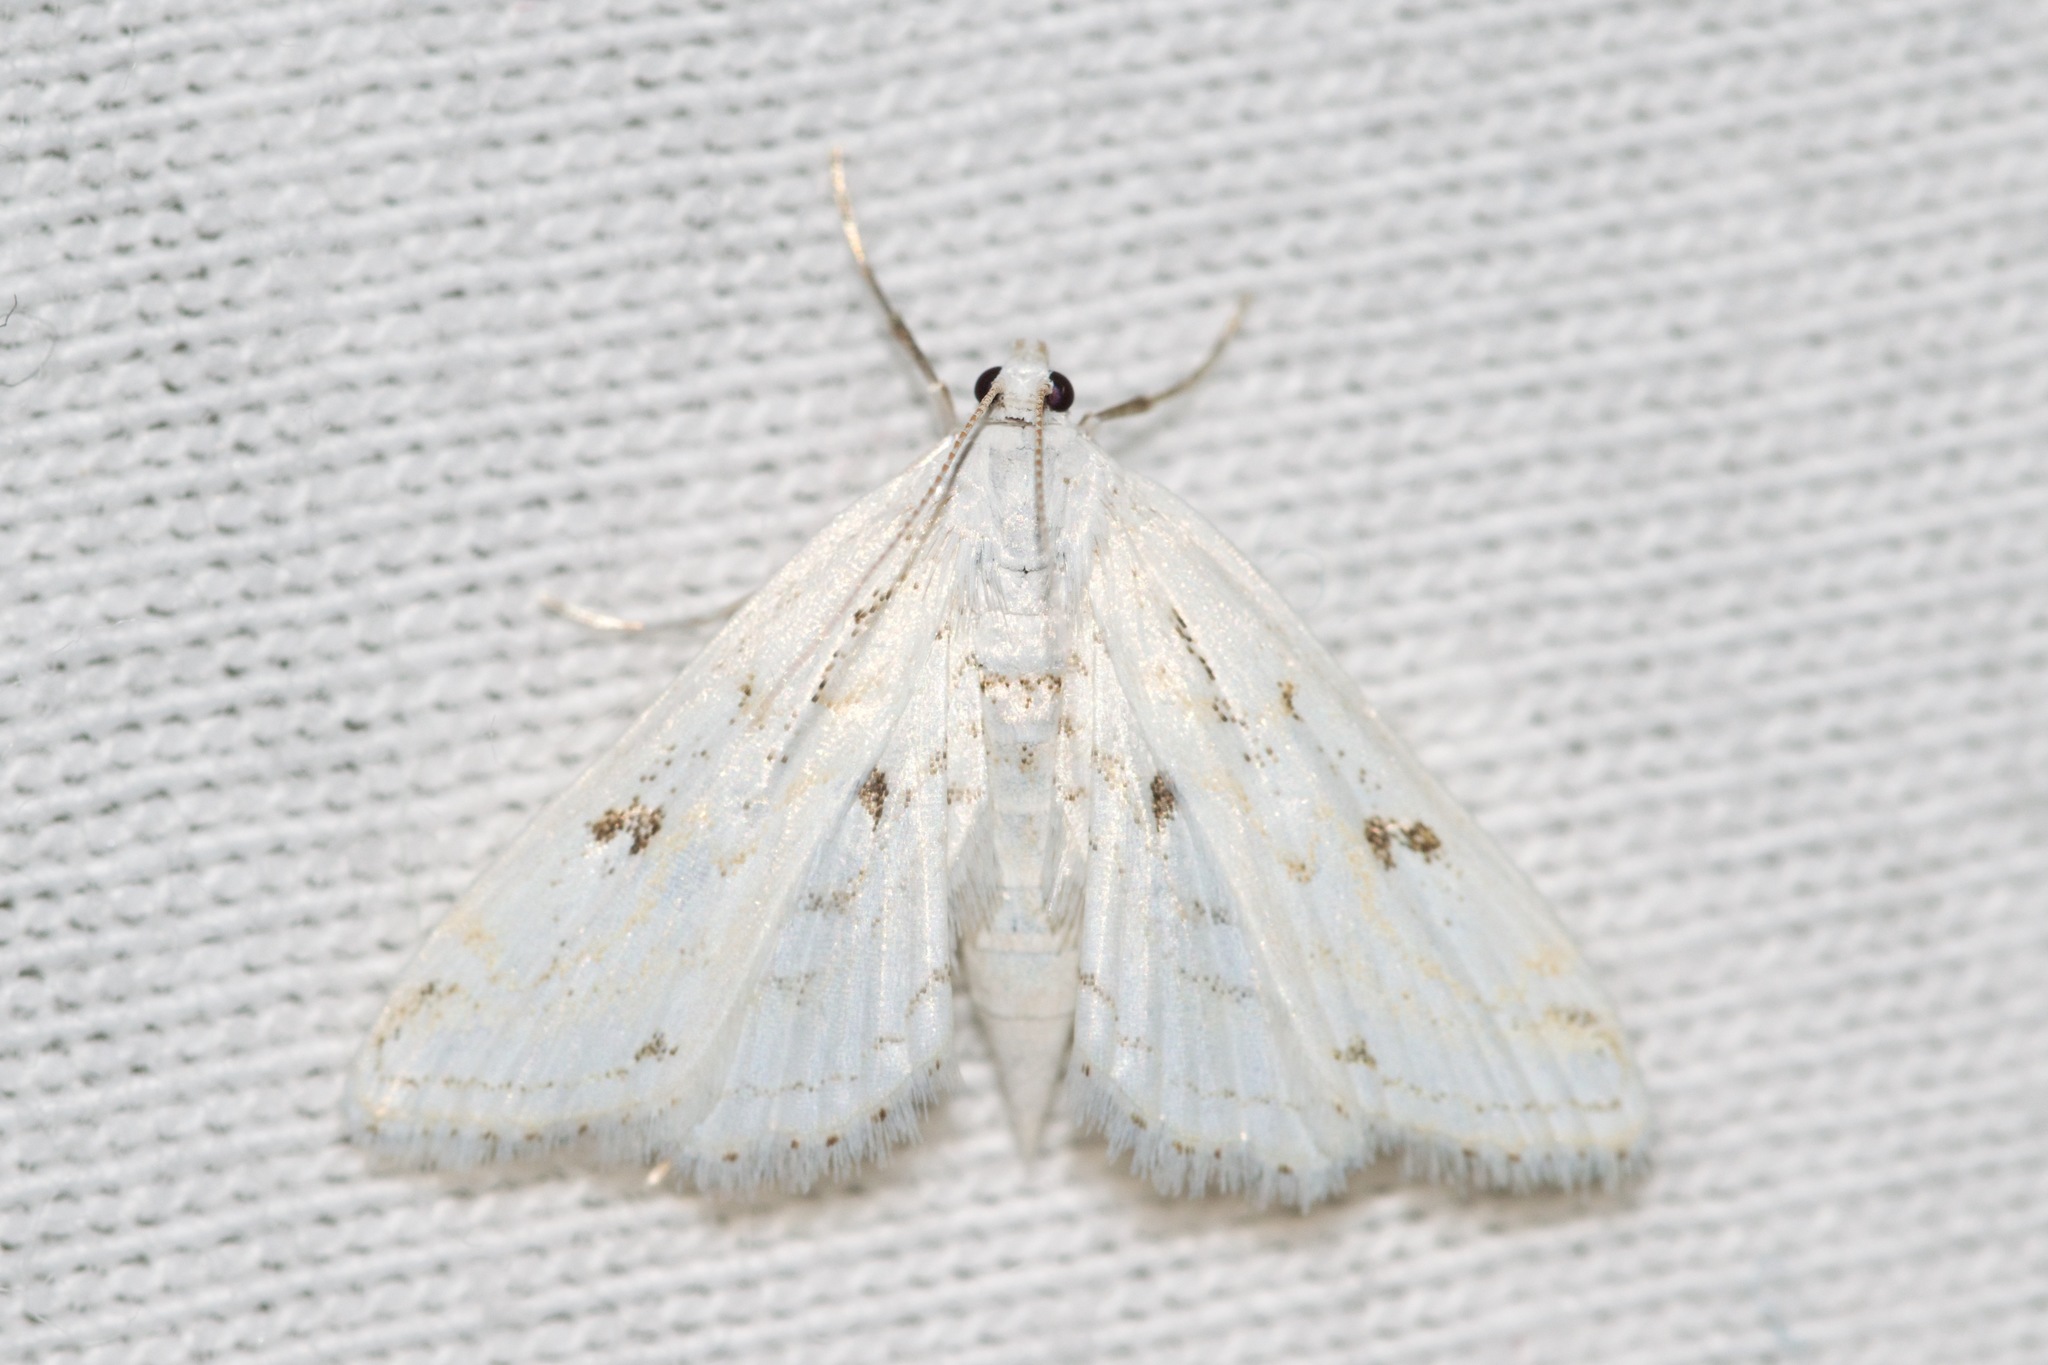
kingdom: Animalia
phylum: Arthropoda
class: Insecta
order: Lepidoptera
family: Crambidae
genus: Parapoynx
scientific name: Parapoynx allionealis
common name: Bladderwort casemaker
